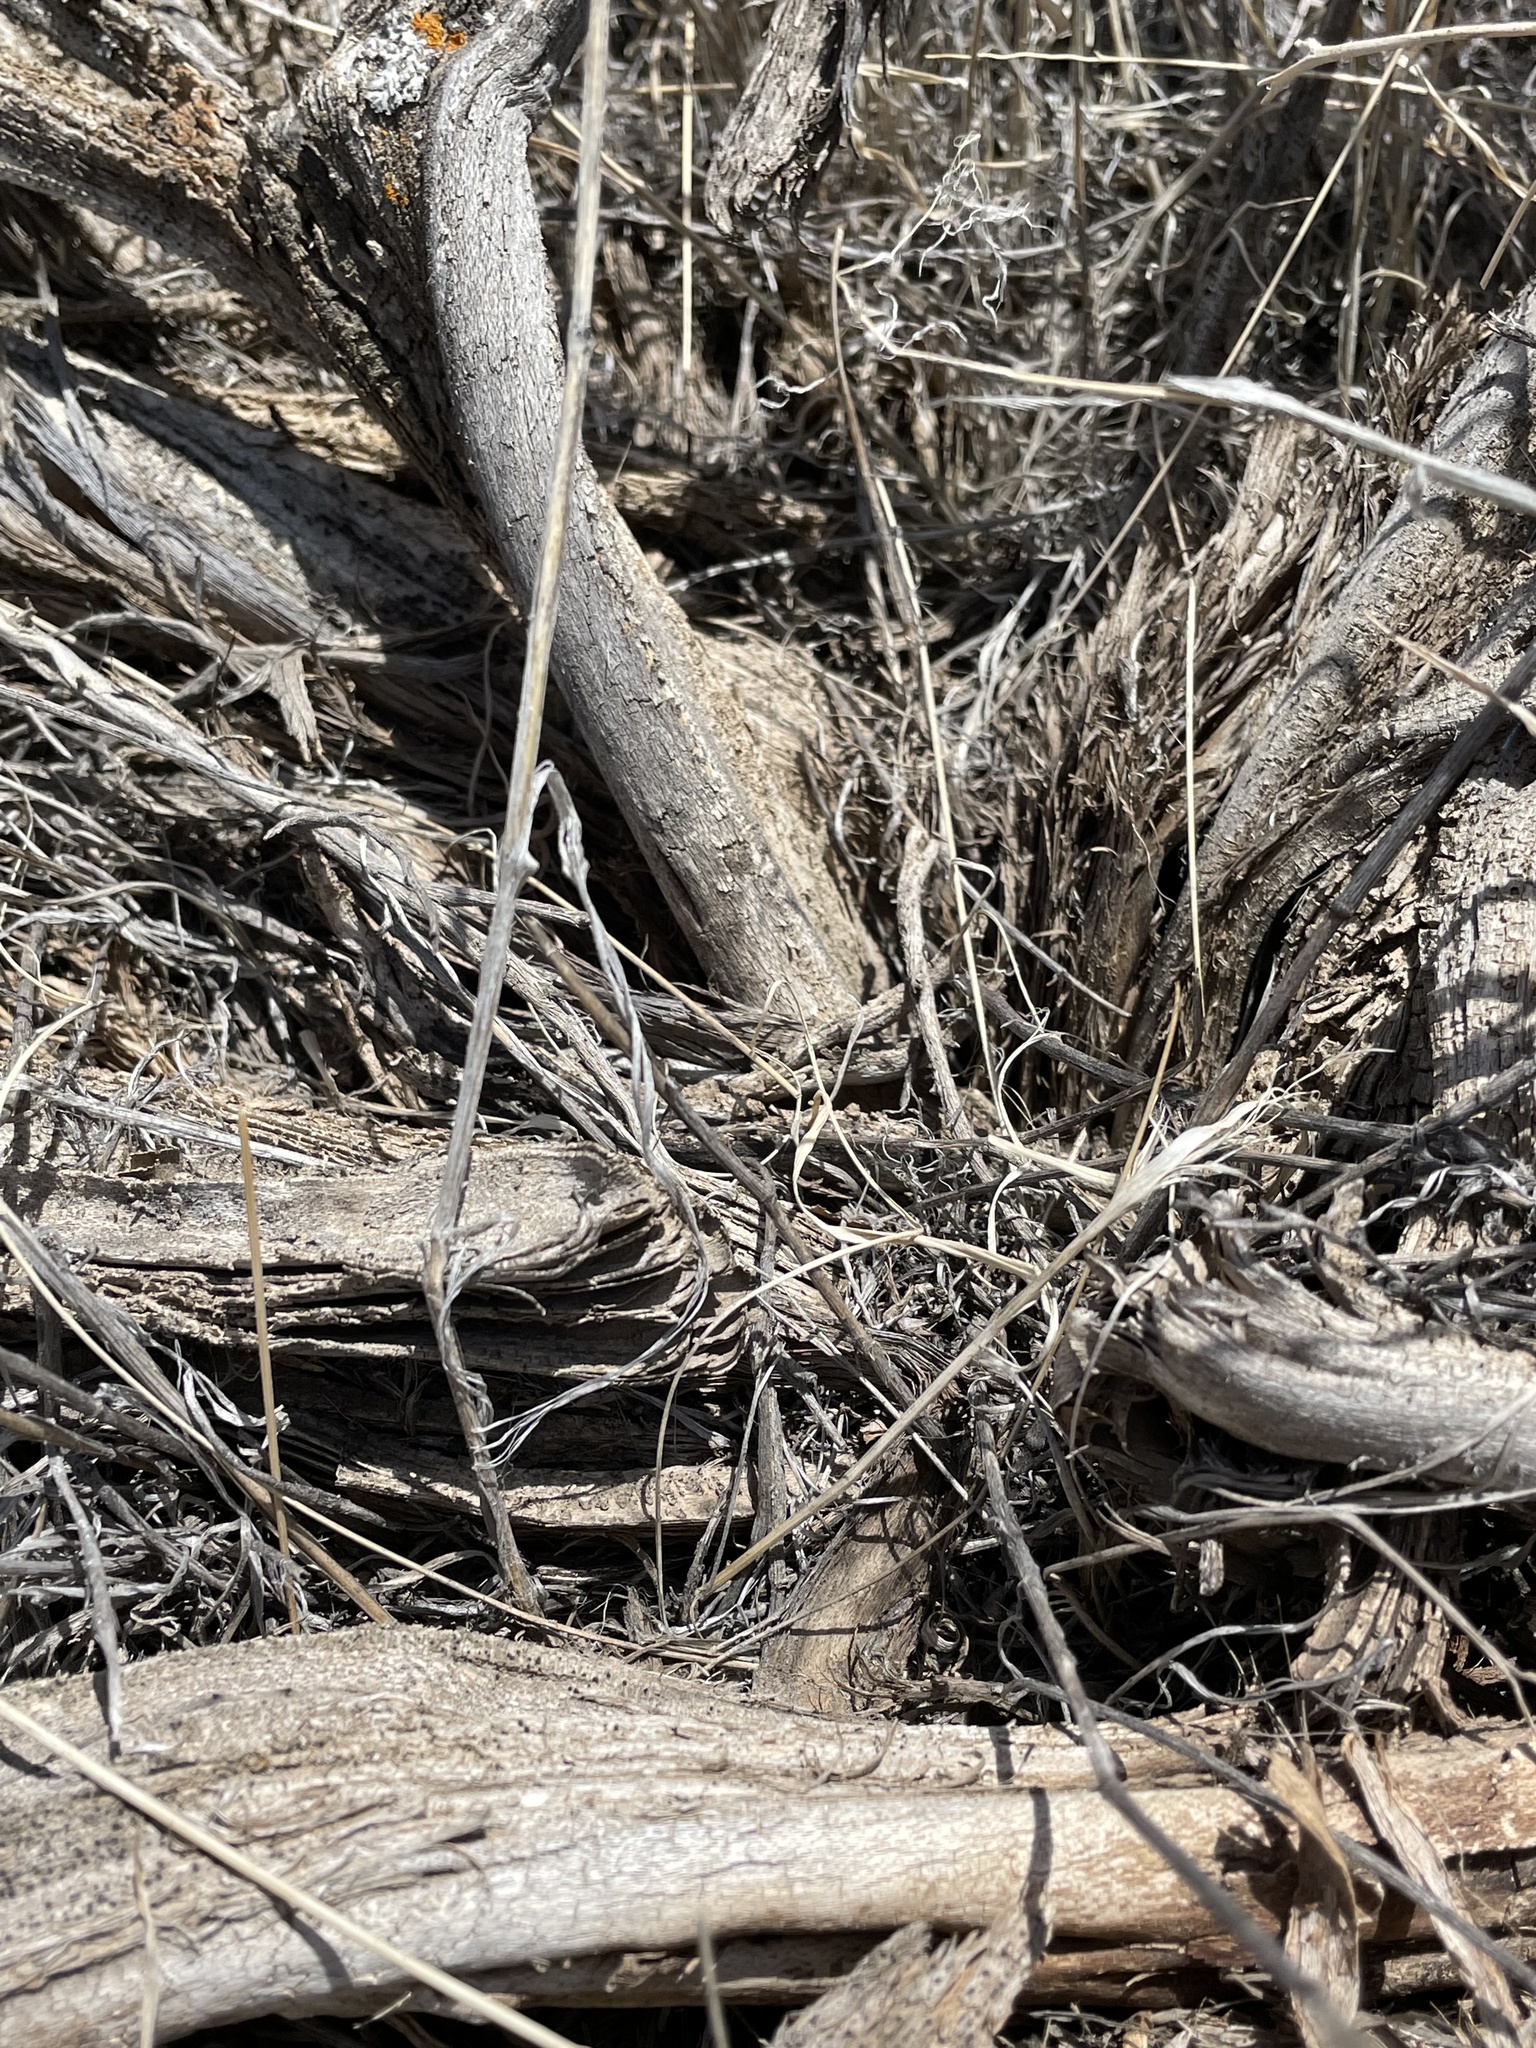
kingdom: Plantae
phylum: Tracheophyta
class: Magnoliopsida
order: Asterales
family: Asteraceae
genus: Artemisia
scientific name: Artemisia tridentata
